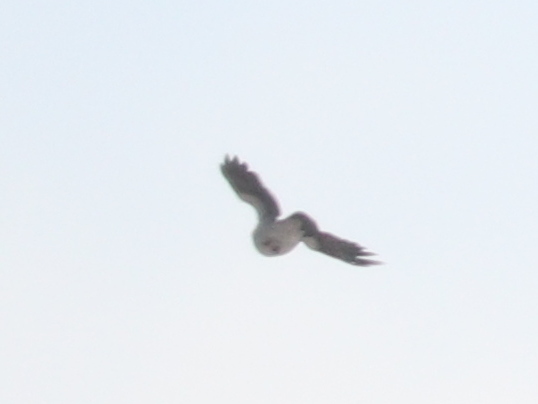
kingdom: Animalia
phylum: Chordata
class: Aves
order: Passeriformes
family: Corvidae
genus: Corvus
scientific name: Corvus cornix
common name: Hooded crow
